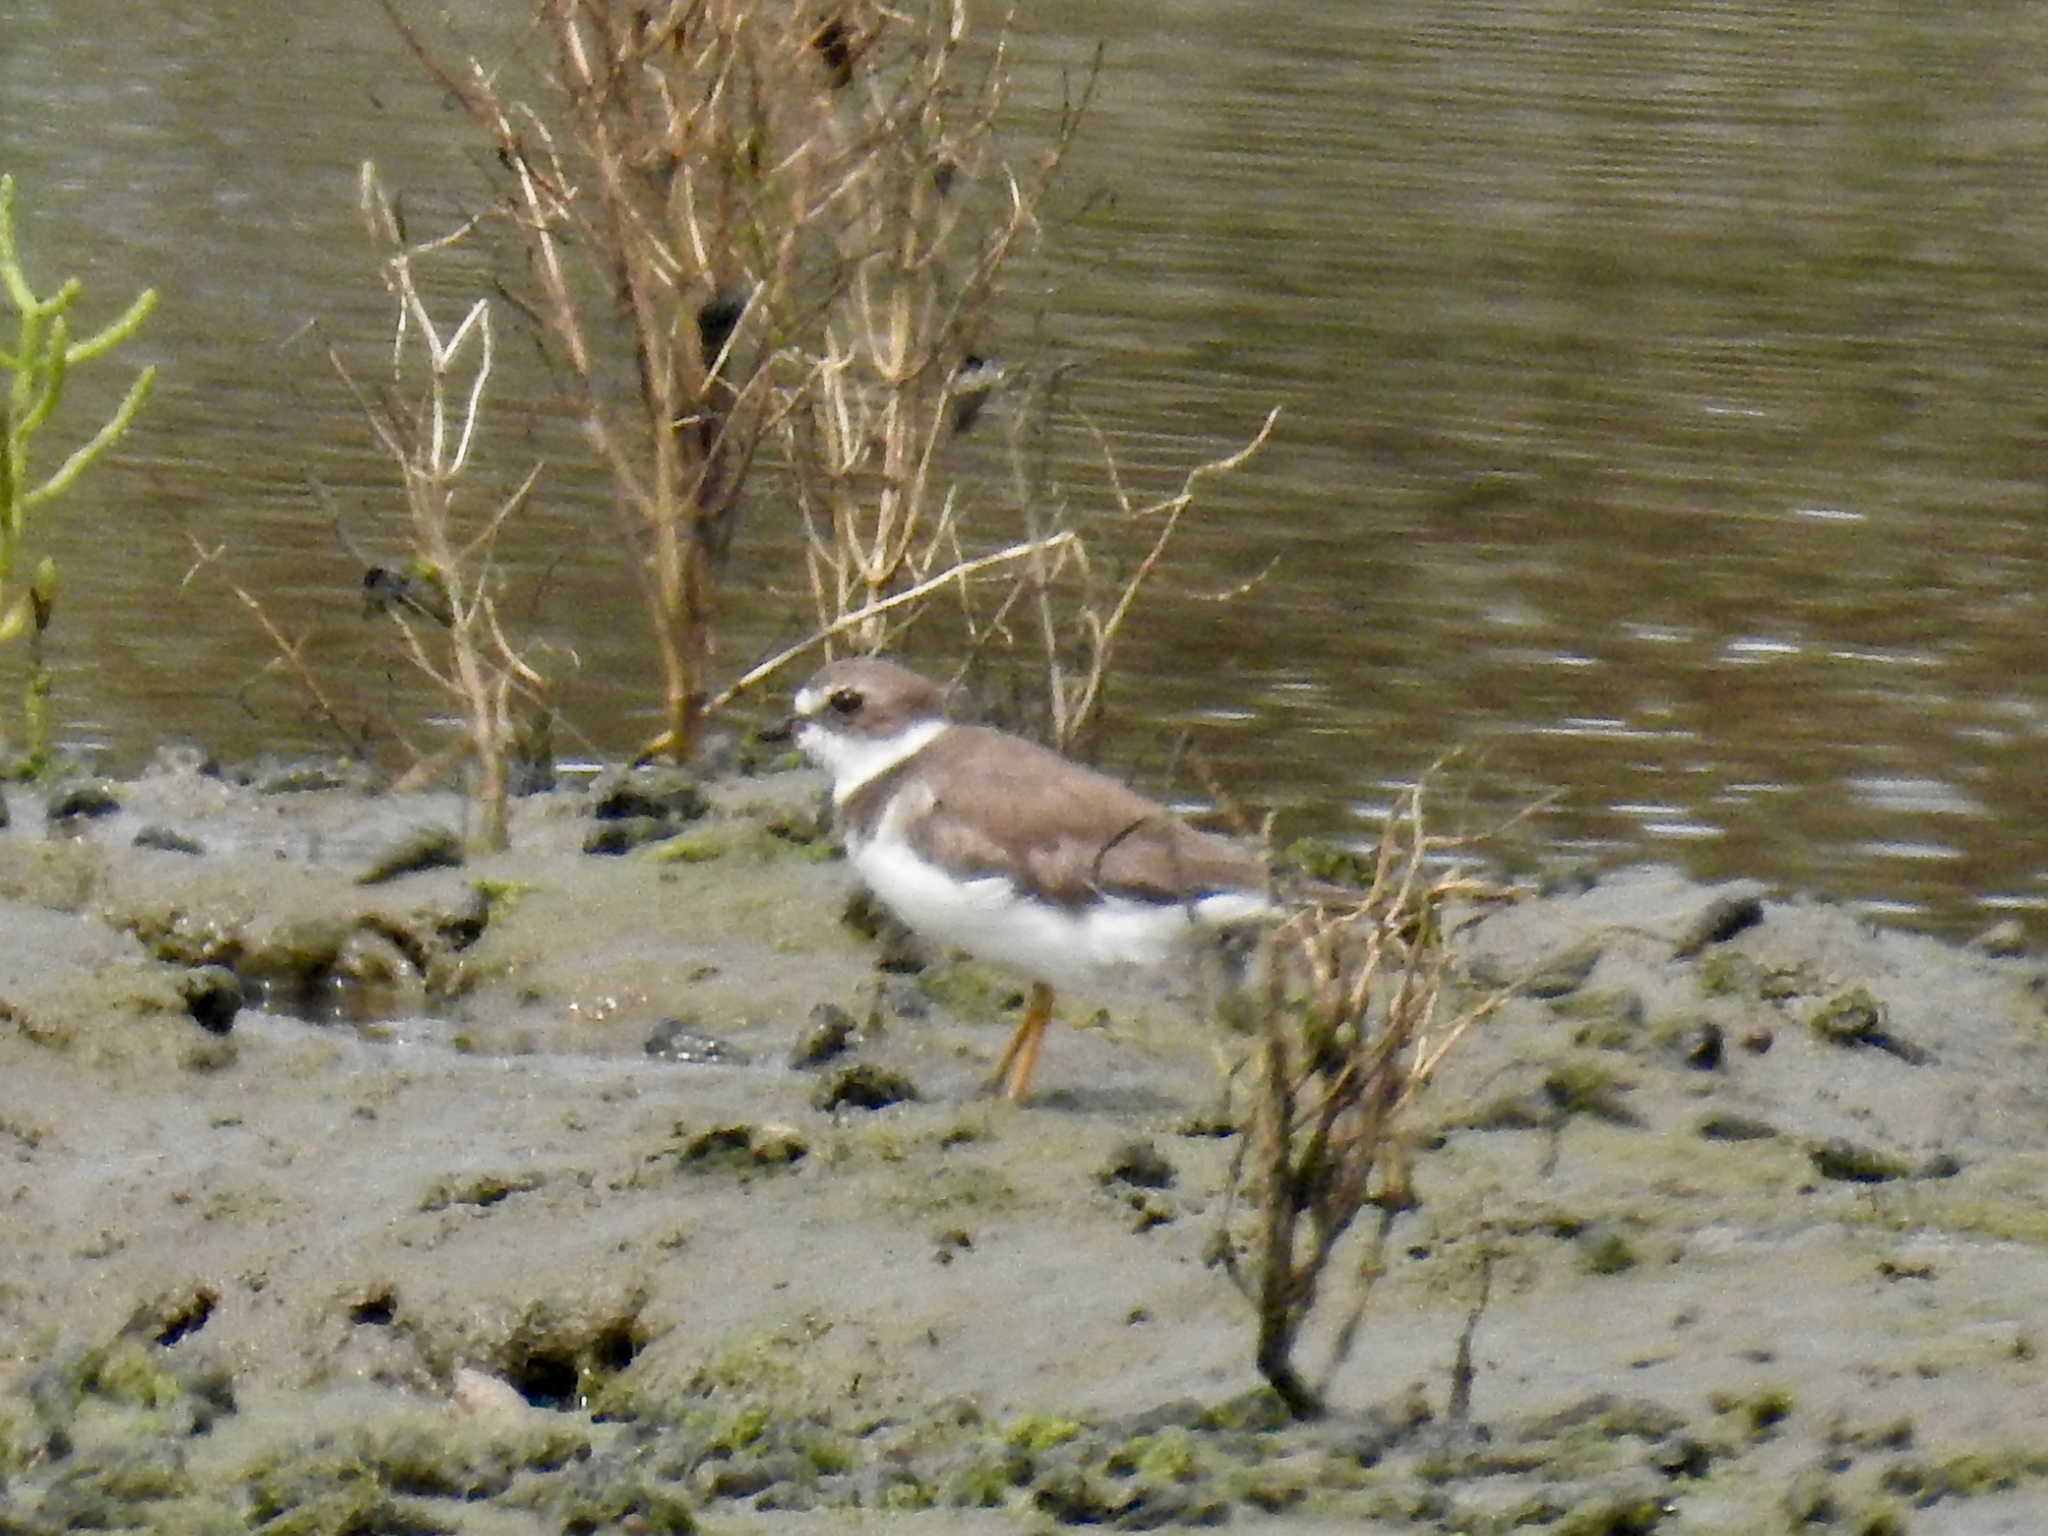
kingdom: Animalia
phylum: Chordata
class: Aves
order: Charadriiformes
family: Charadriidae
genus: Charadrius
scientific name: Charadrius semipalmatus
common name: Semipalmated plover
